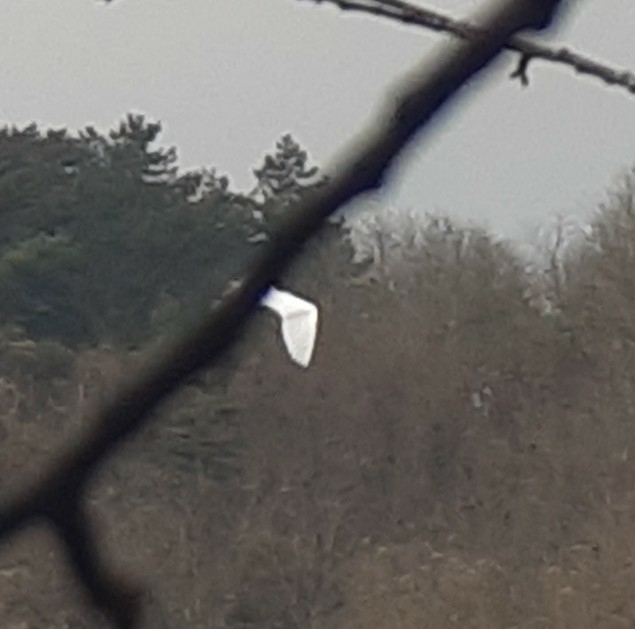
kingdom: Animalia
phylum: Chordata
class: Aves
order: Pelecaniformes
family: Ardeidae
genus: Ardea
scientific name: Ardea alba
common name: Great egret
